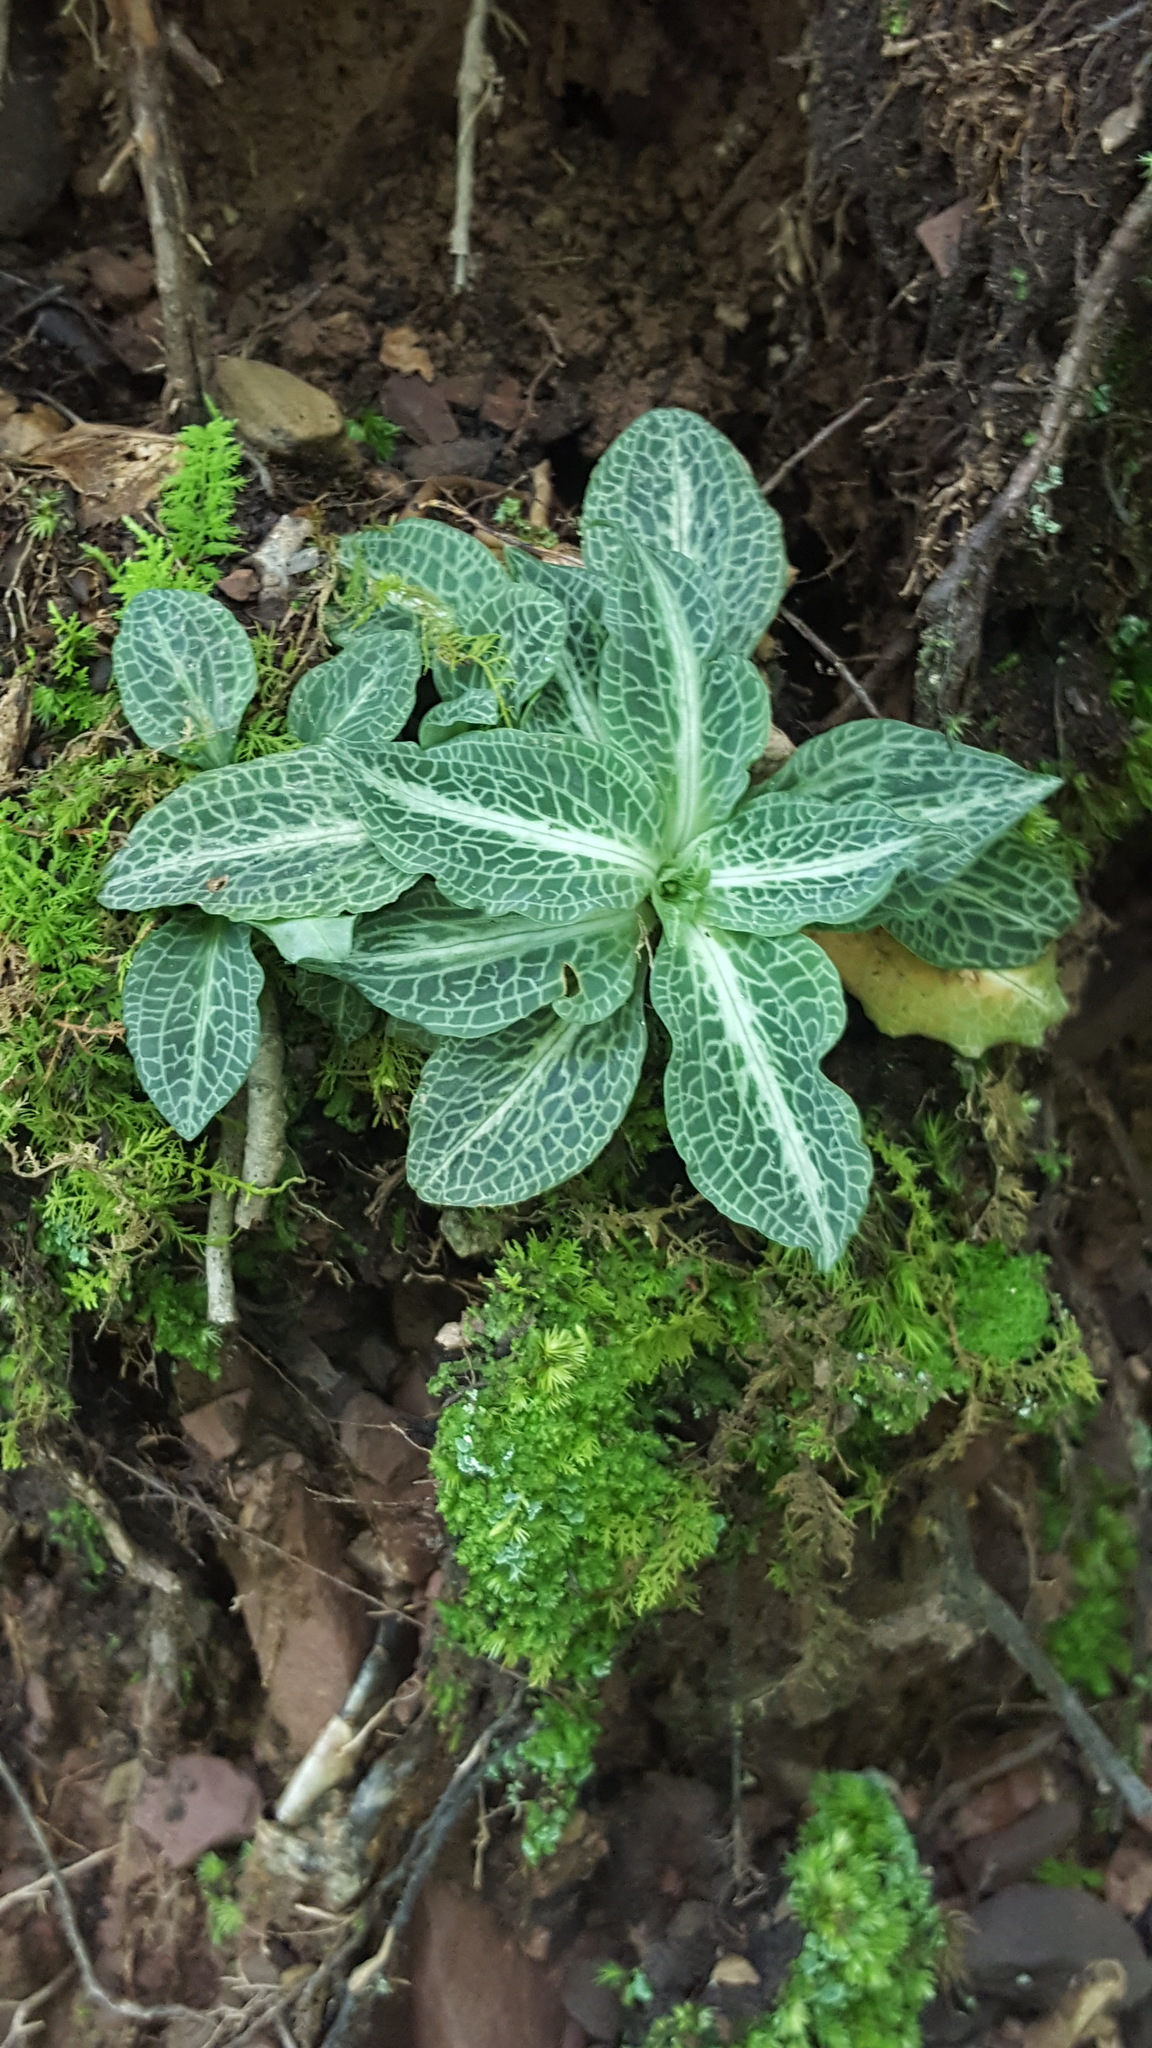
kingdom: Plantae
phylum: Tracheophyta
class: Liliopsida
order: Asparagales
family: Orchidaceae
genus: Goodyera
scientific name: Goodyera pubescens
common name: Downy rattlesnake-plantain
